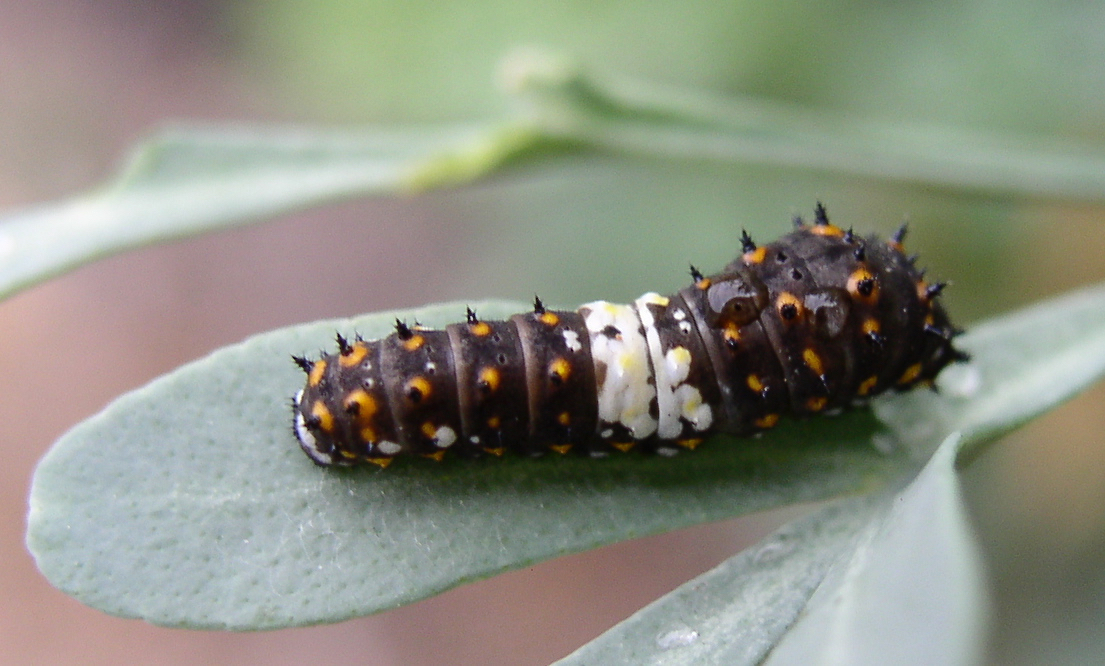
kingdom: Animalia
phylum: Arthropoda
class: Insecta
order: Lepidoptera
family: Papilionidae
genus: Papilio
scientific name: Papilio polyxenes
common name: Black swallowtail
